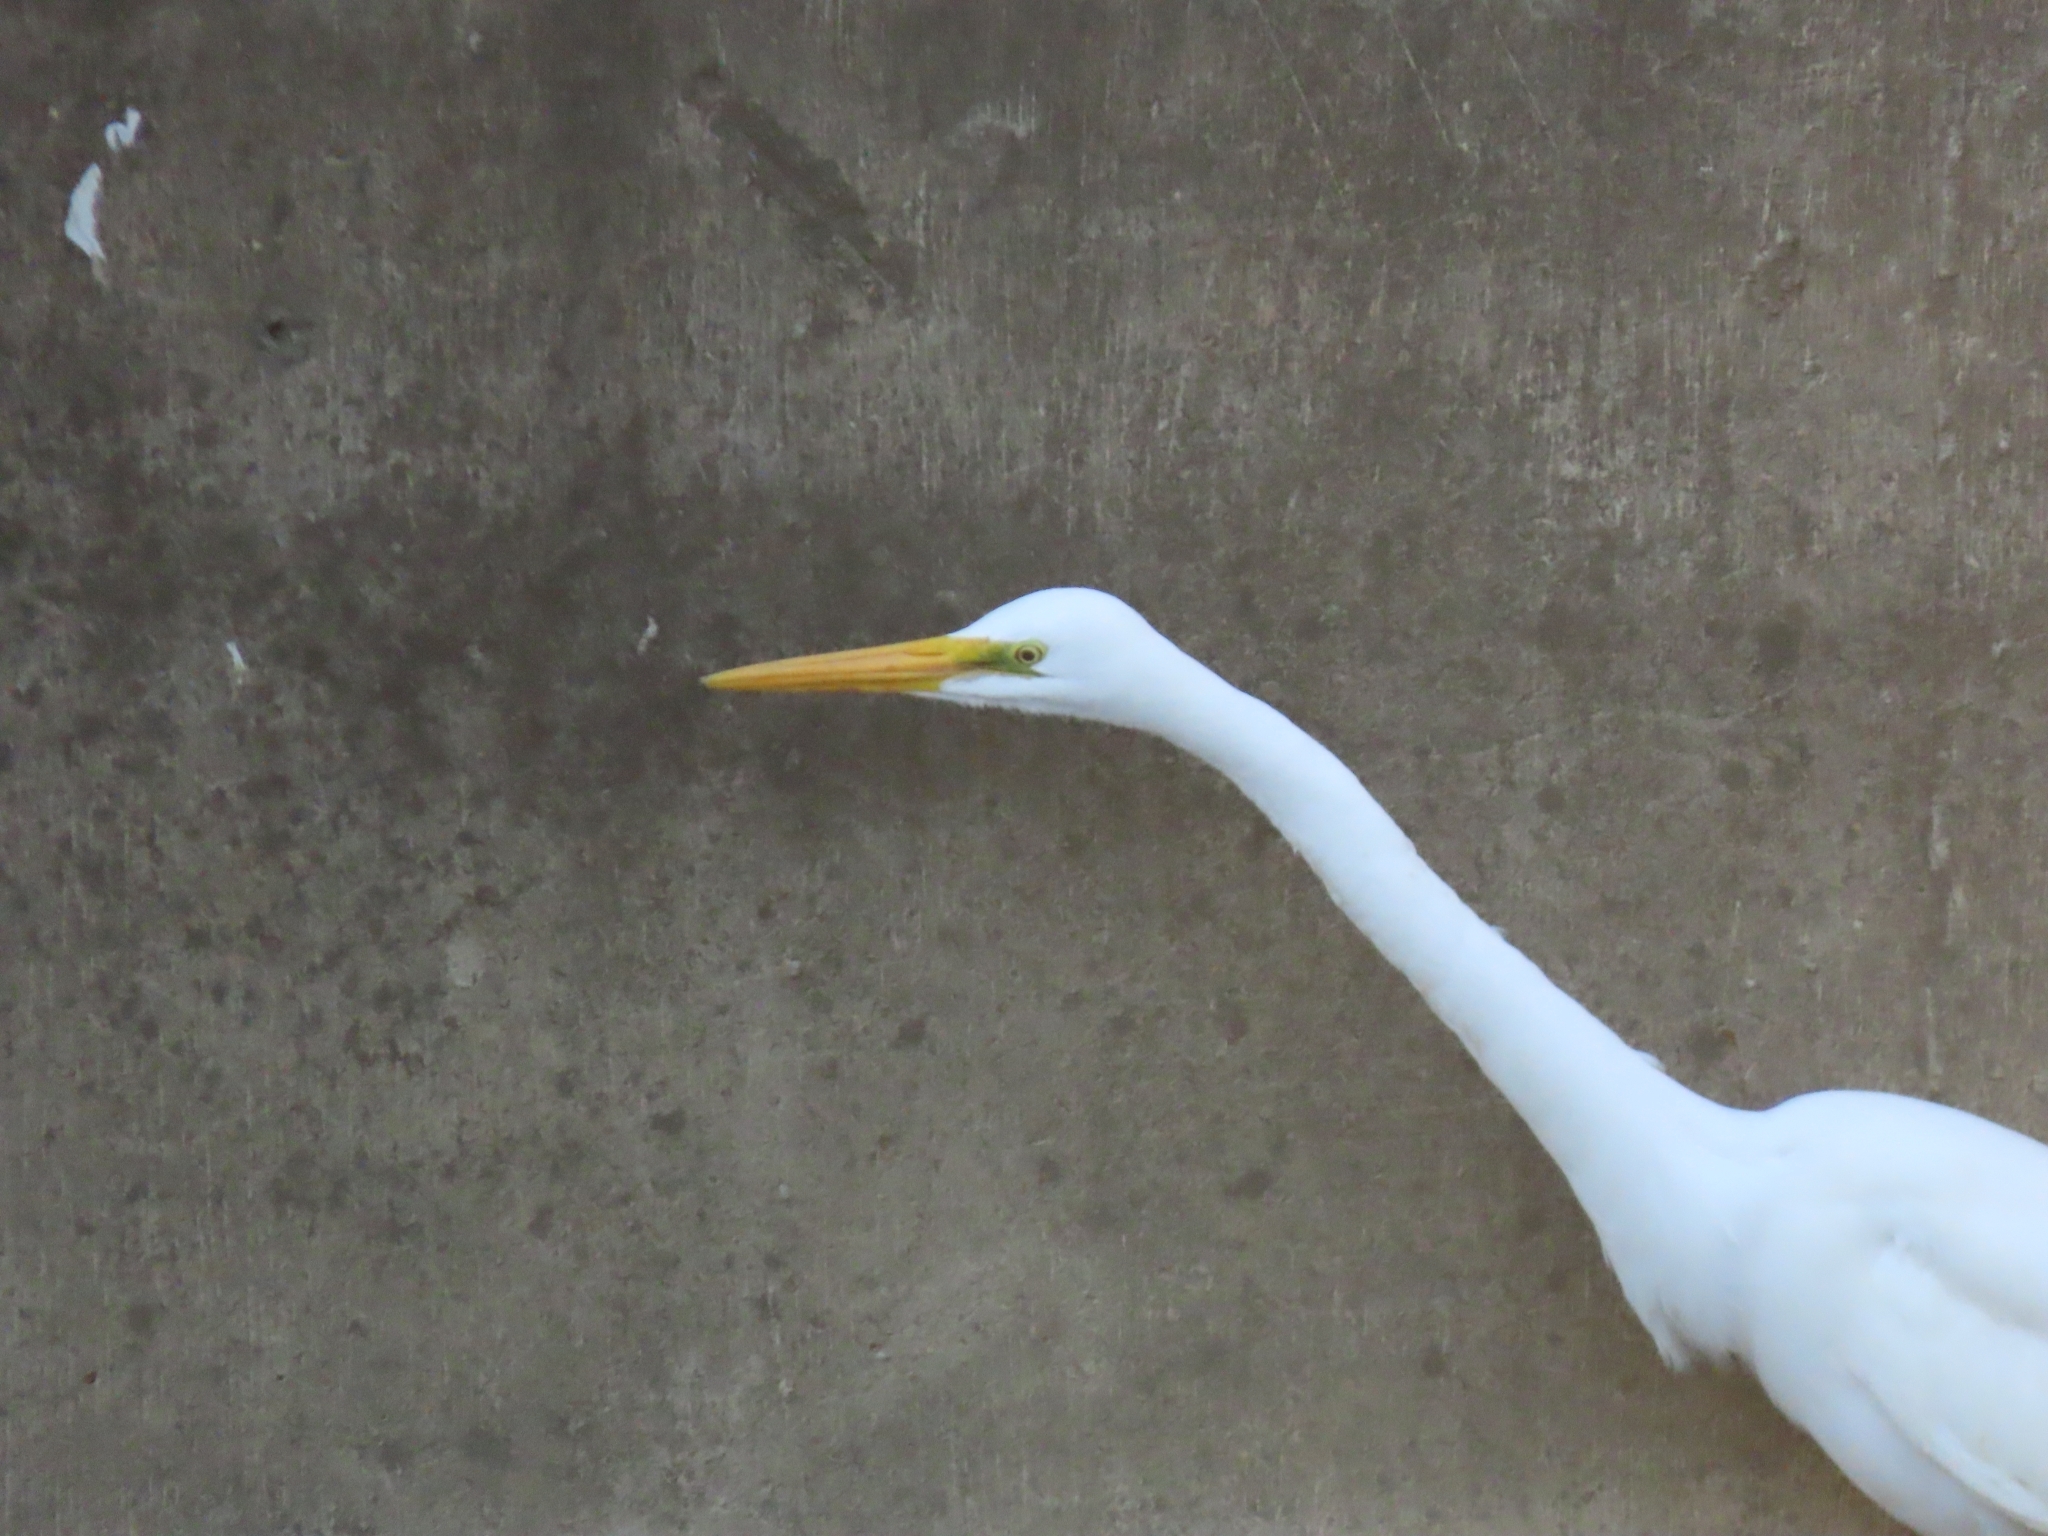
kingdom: Animalia
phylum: Chordata
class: Aves
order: Pelecaniformes
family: Ardeidae
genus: Ardea
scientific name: Ardea alba
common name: Great egret
